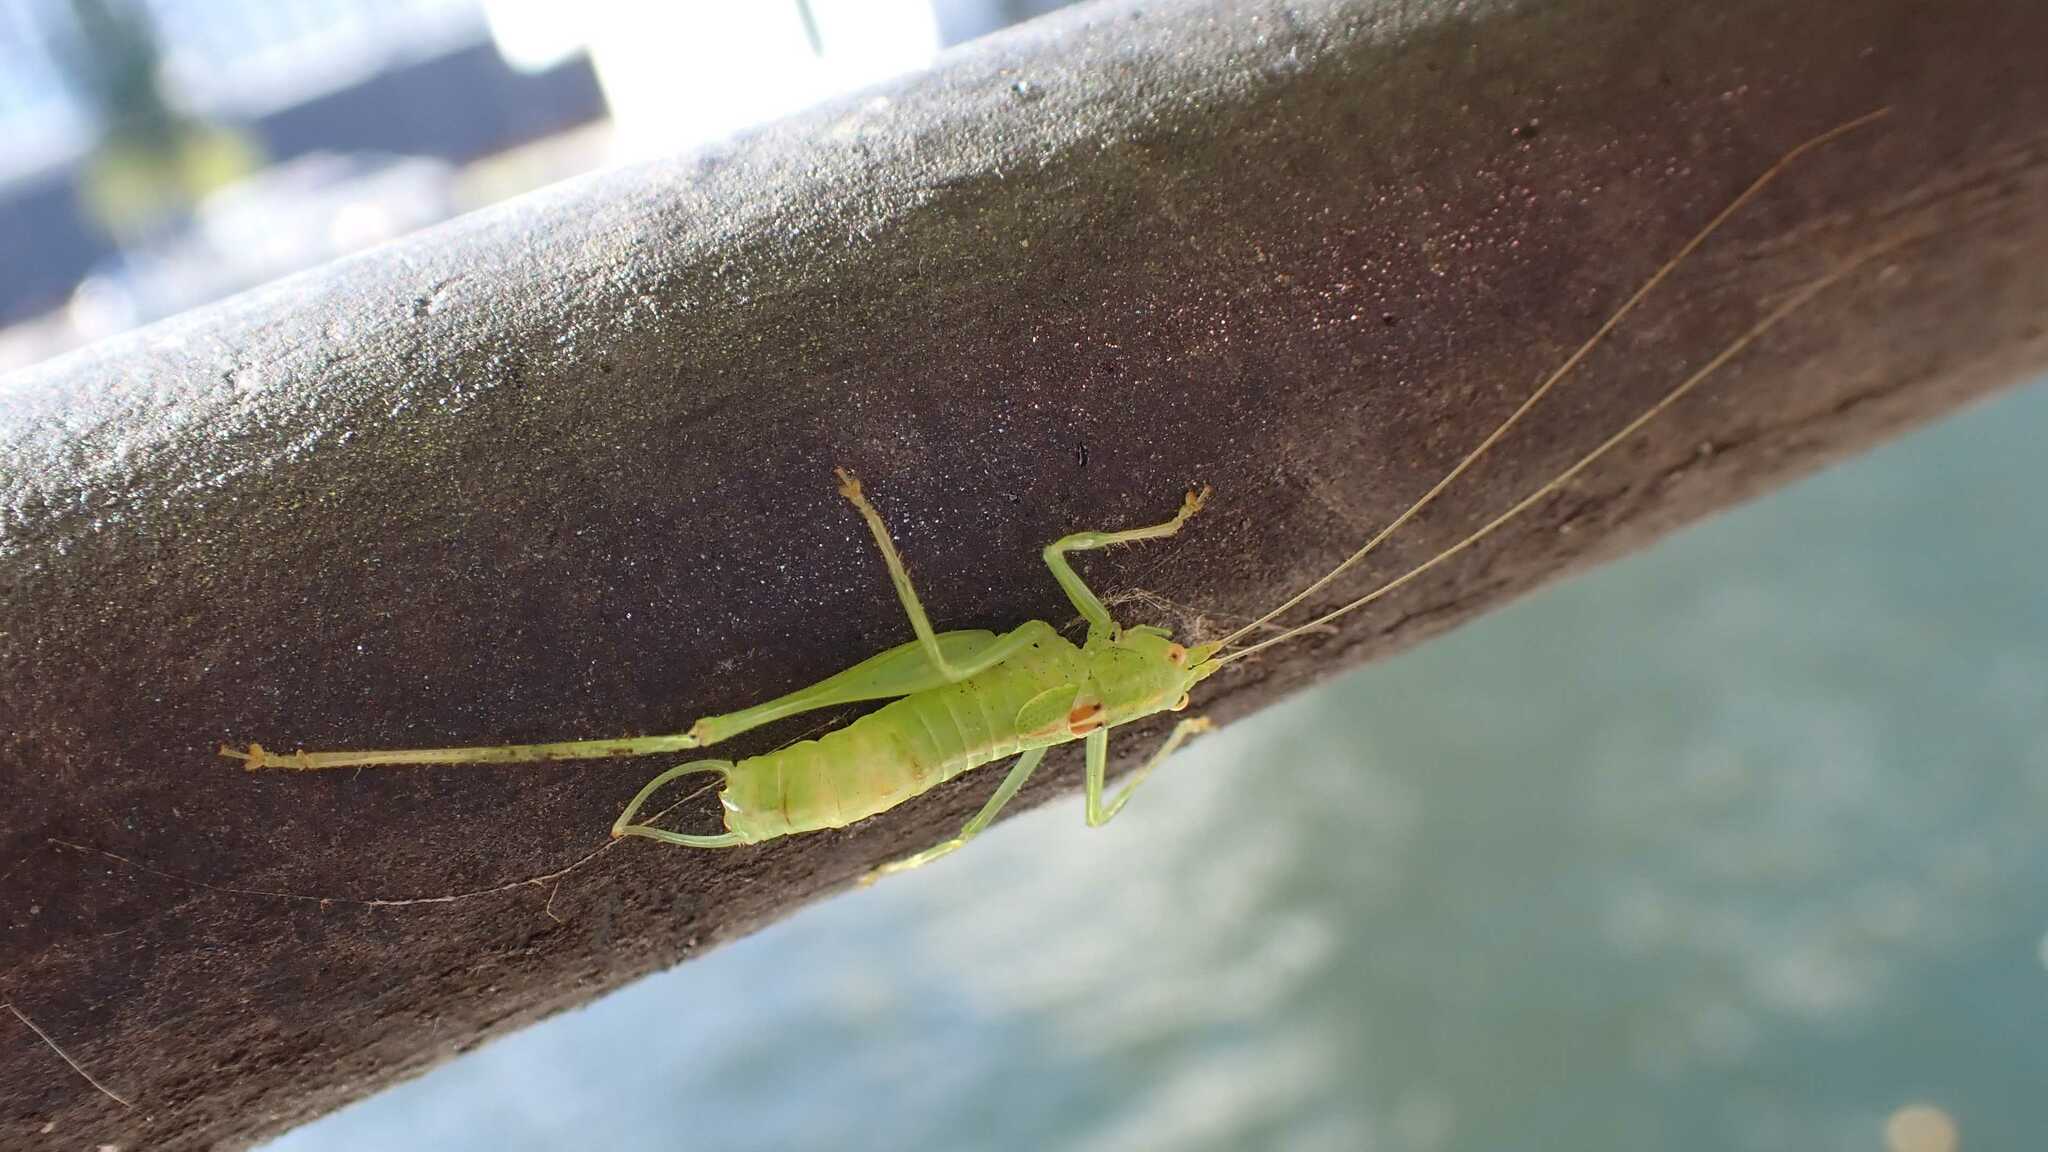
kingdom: Animalia
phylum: Arthropoda
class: Insecta
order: Orthoptera
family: Tettigoniidae
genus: Meconema
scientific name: Meconema meridionale
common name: Southern oak bush-cricket
